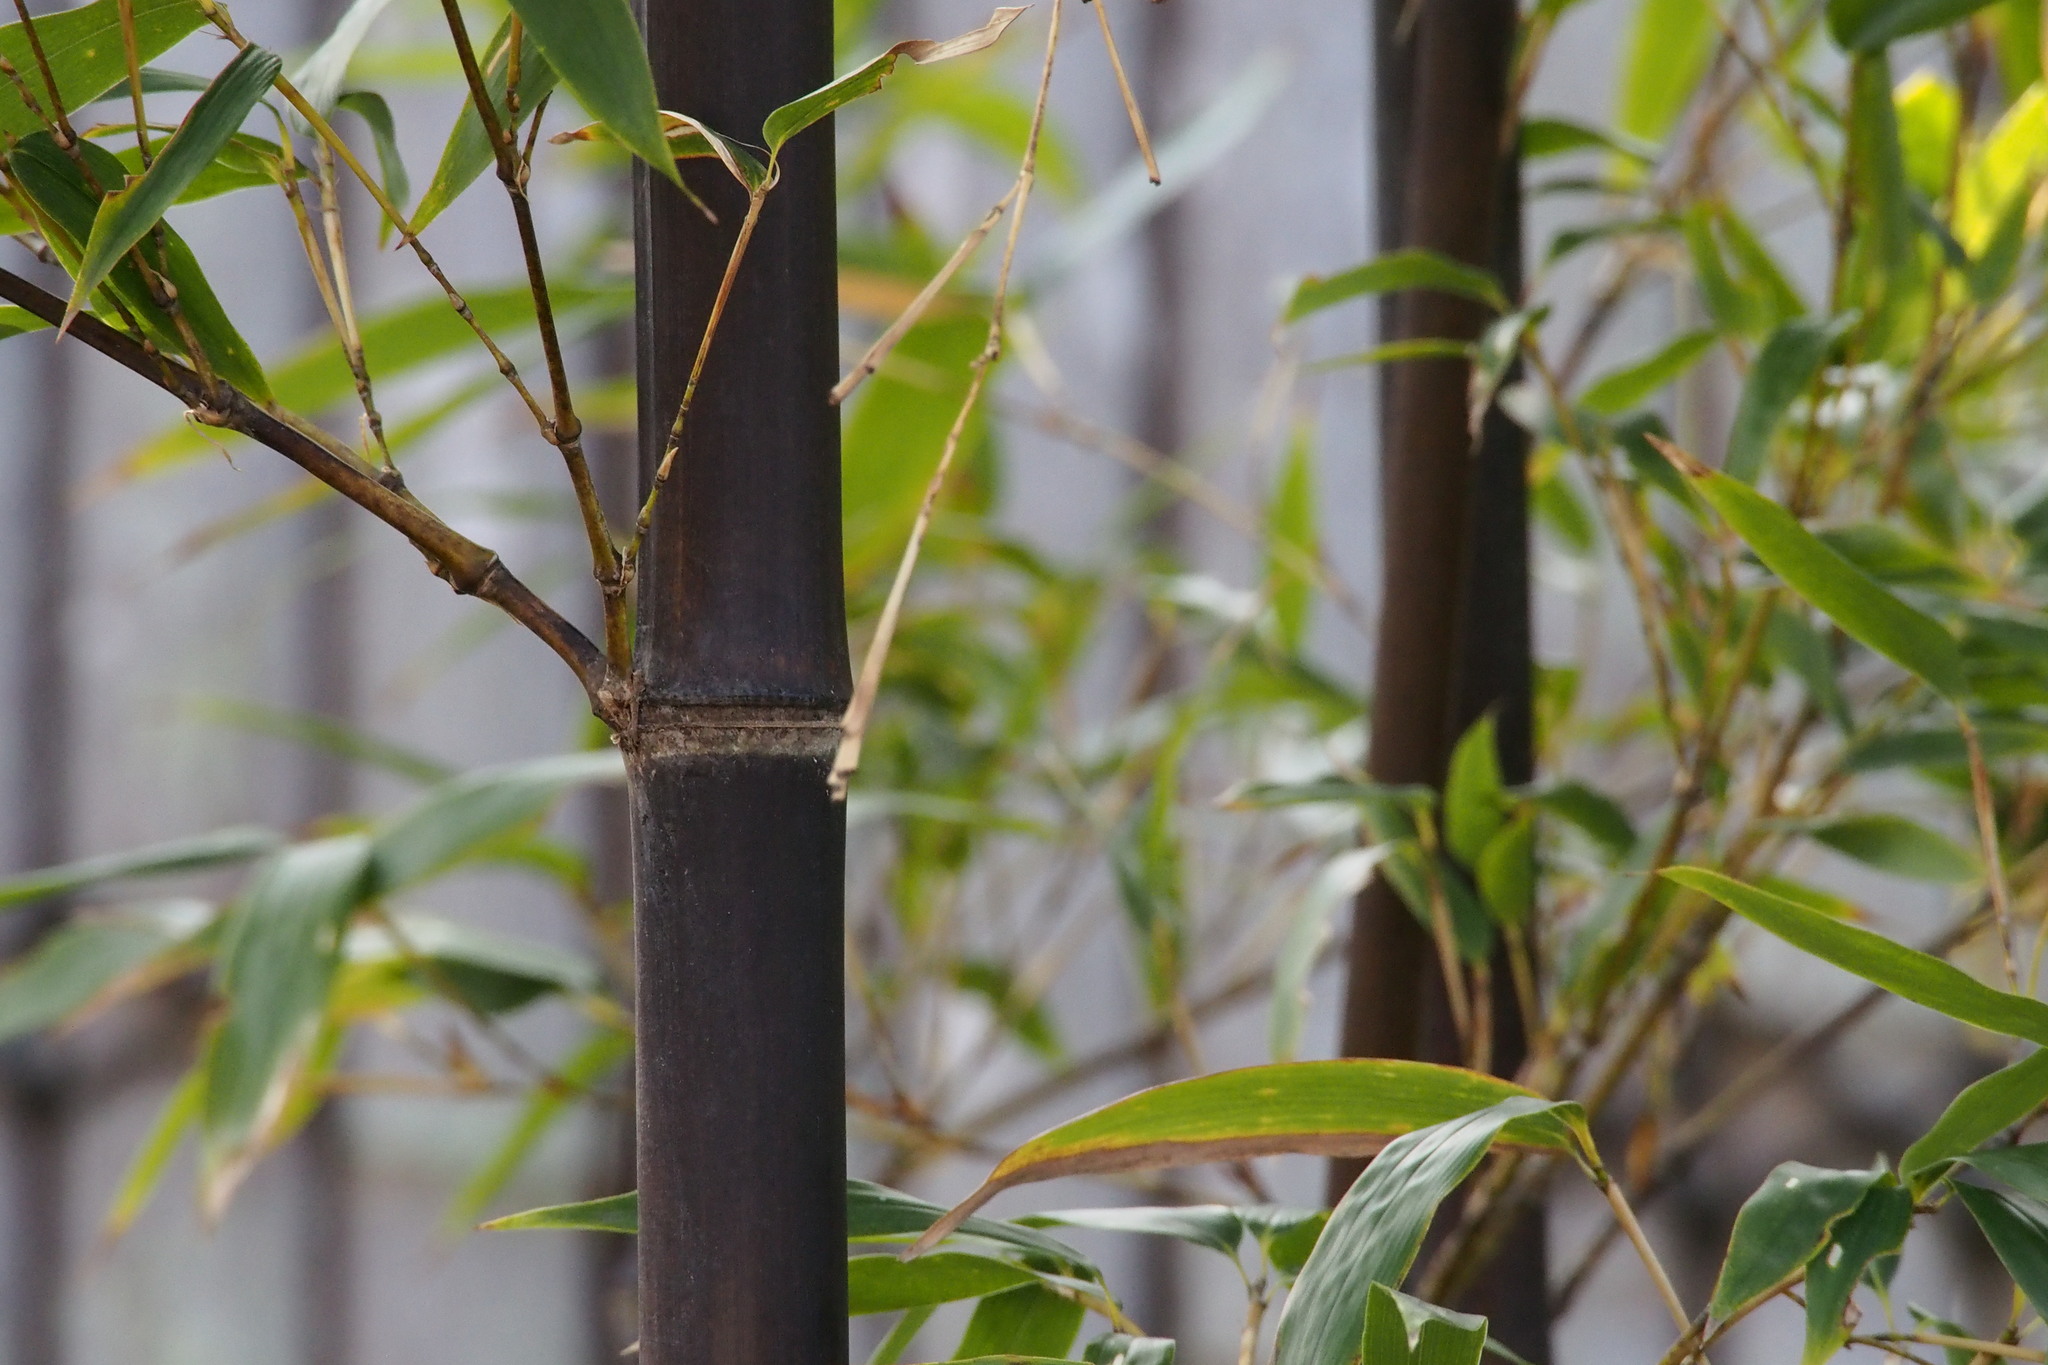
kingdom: Plantae
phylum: Tracheophyta
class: Liliopsida
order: Poales
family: Poaceae
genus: Phyllostachys
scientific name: Phyllostachys nigra
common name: Black bamboo
